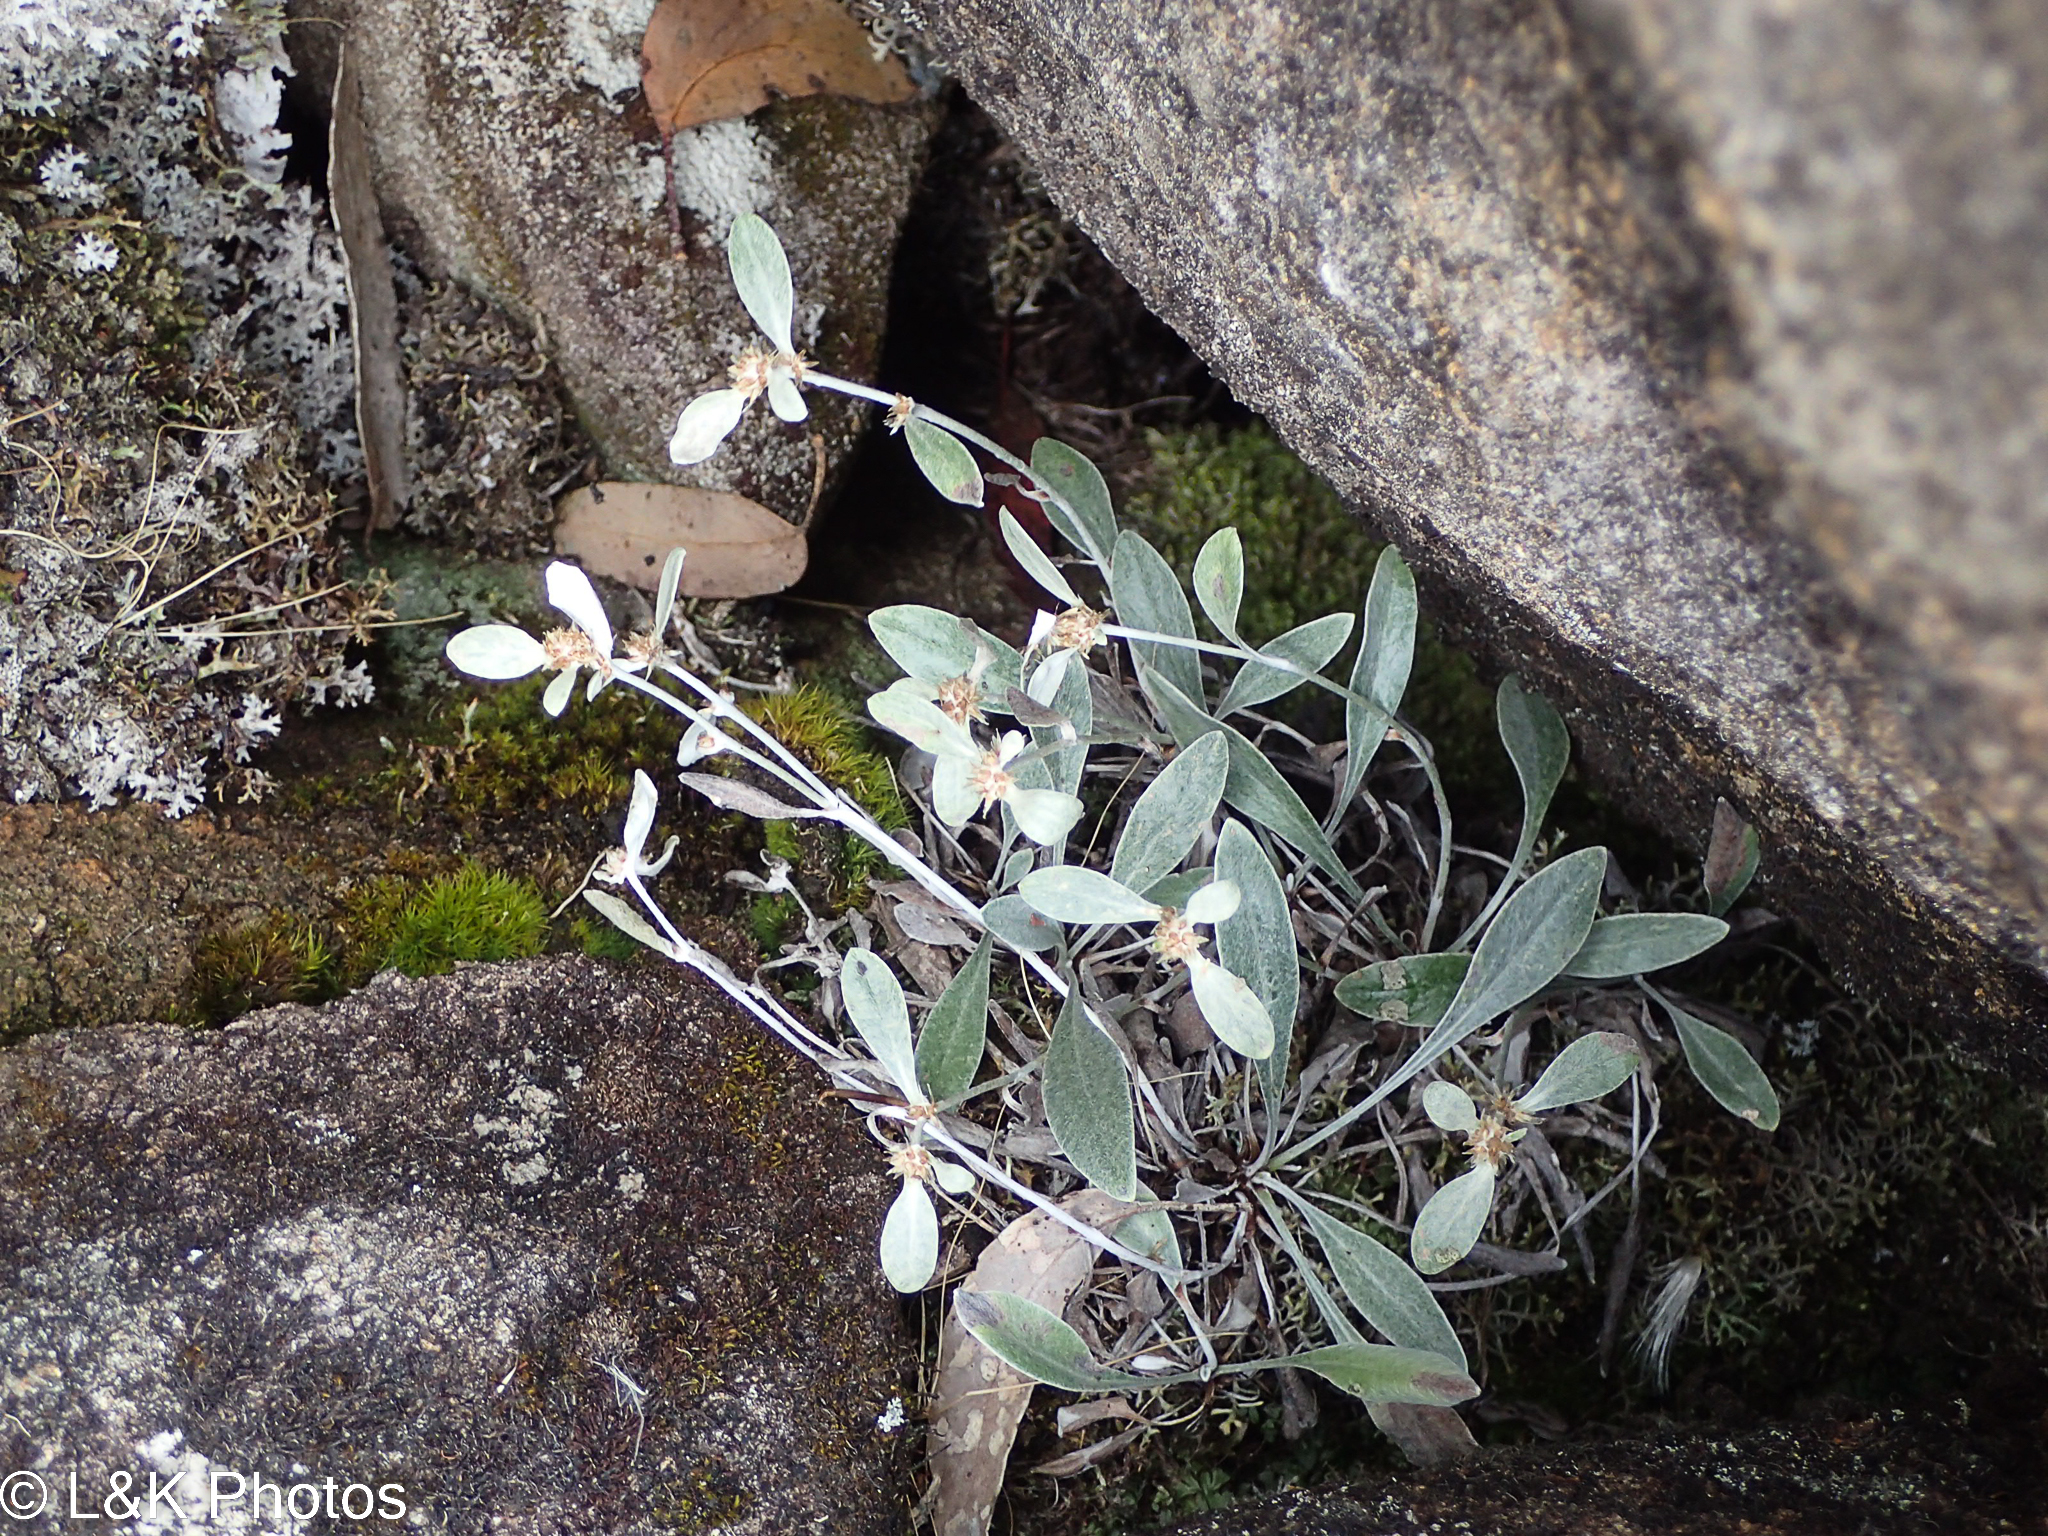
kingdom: Plantae
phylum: Tracheophyta
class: Magnoliopsida
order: Asterales
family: Asteraceae
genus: Euchiton
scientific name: Euchiton umbricola
